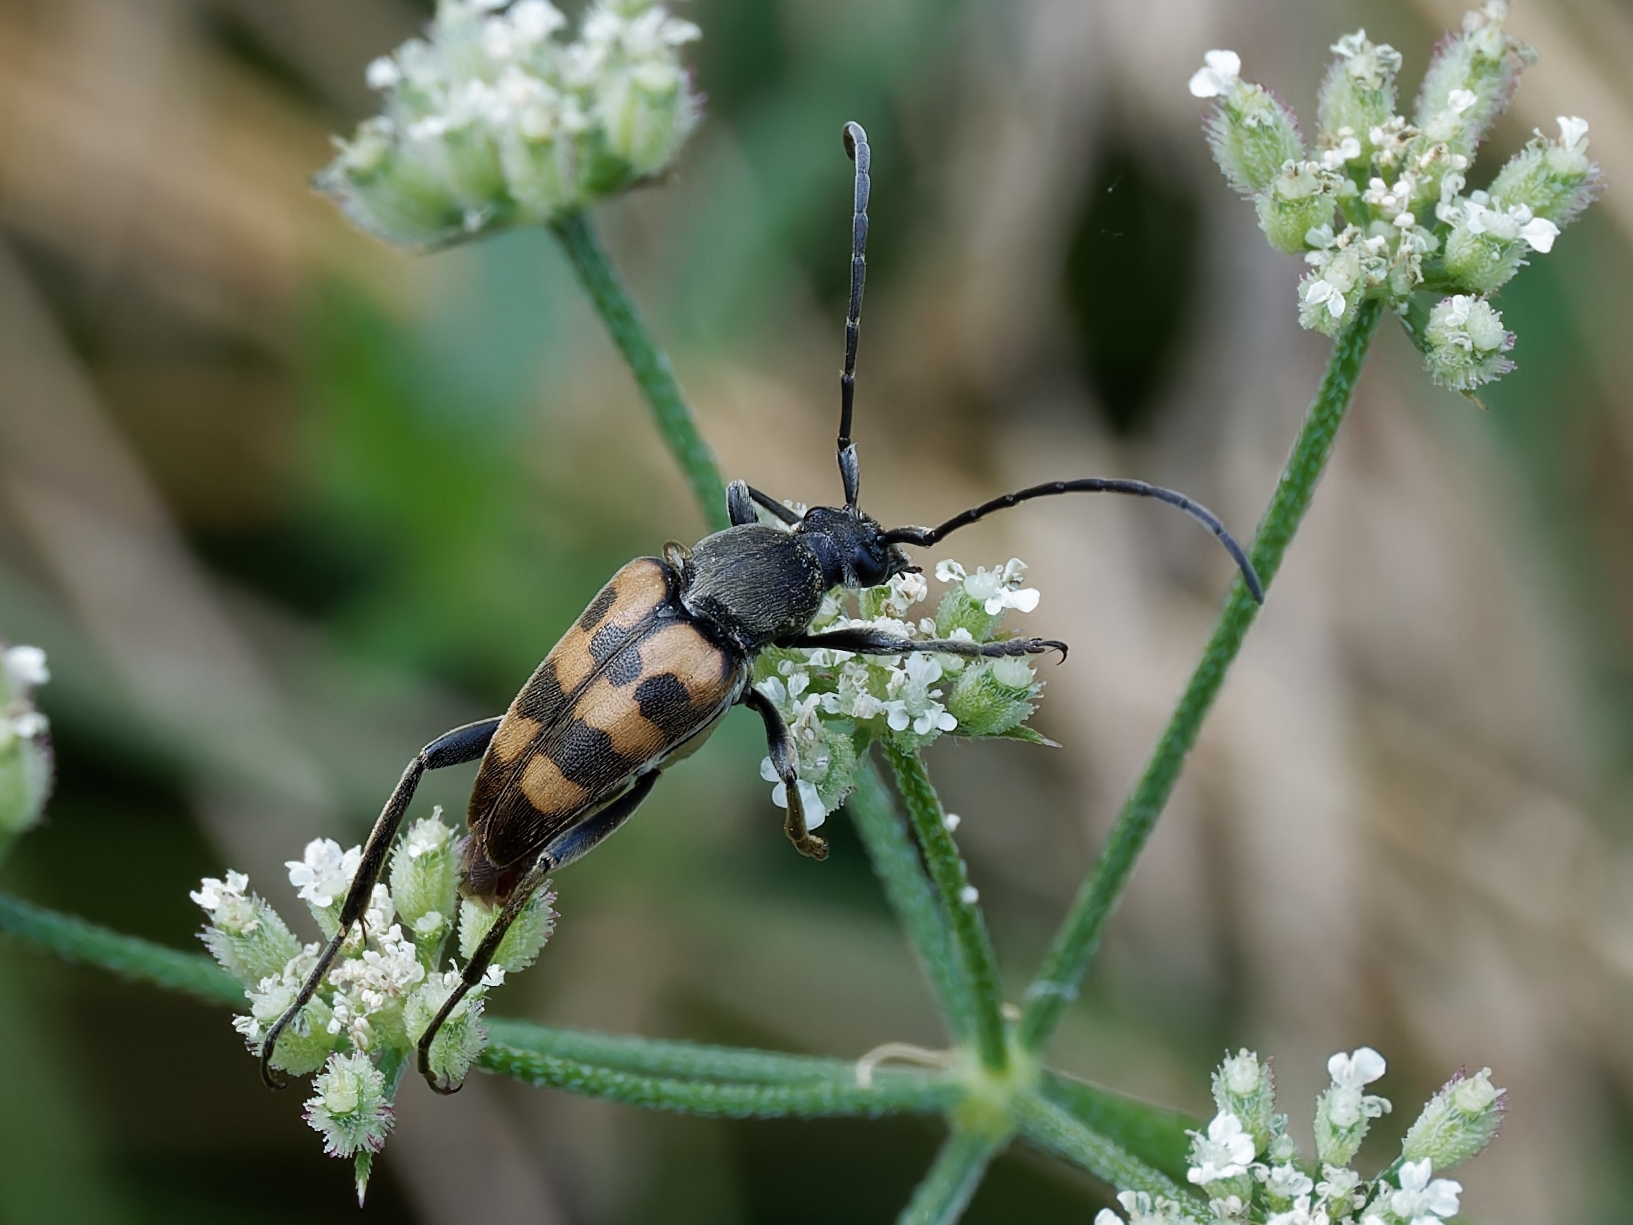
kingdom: Animalia
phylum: Arthropoda
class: Insecta
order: Coleoptera
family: Cerambycidae
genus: Pachytodes
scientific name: Pachytodes
